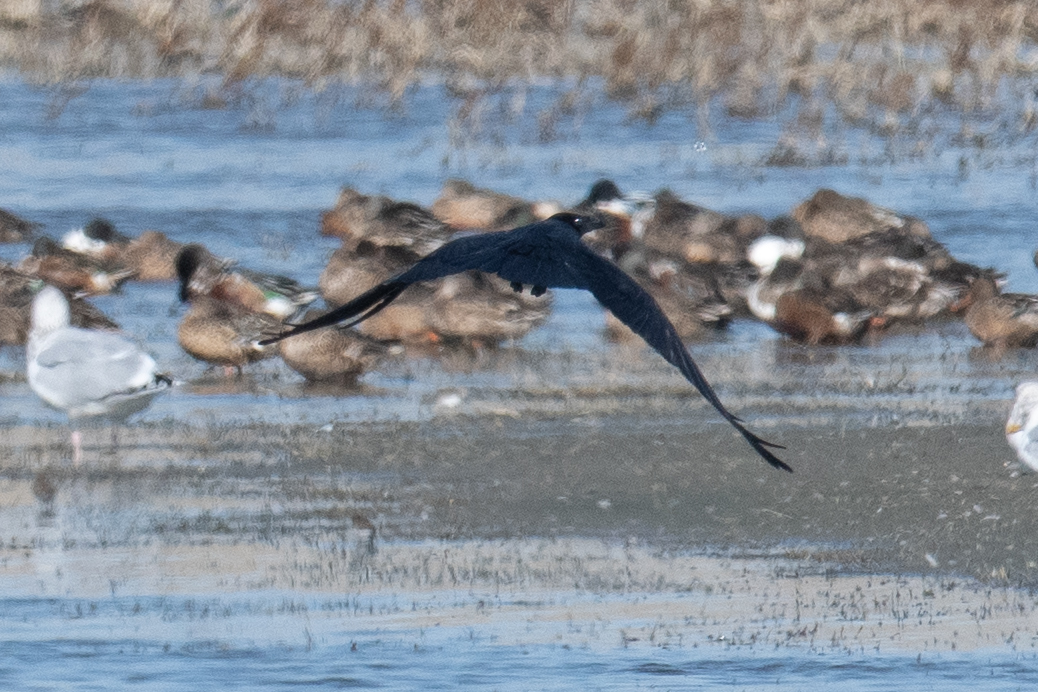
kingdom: Animalia
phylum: Chordata
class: Aves
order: Passeriformes
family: Corvidae
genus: Corvus
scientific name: Corvus corax
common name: Common raven
